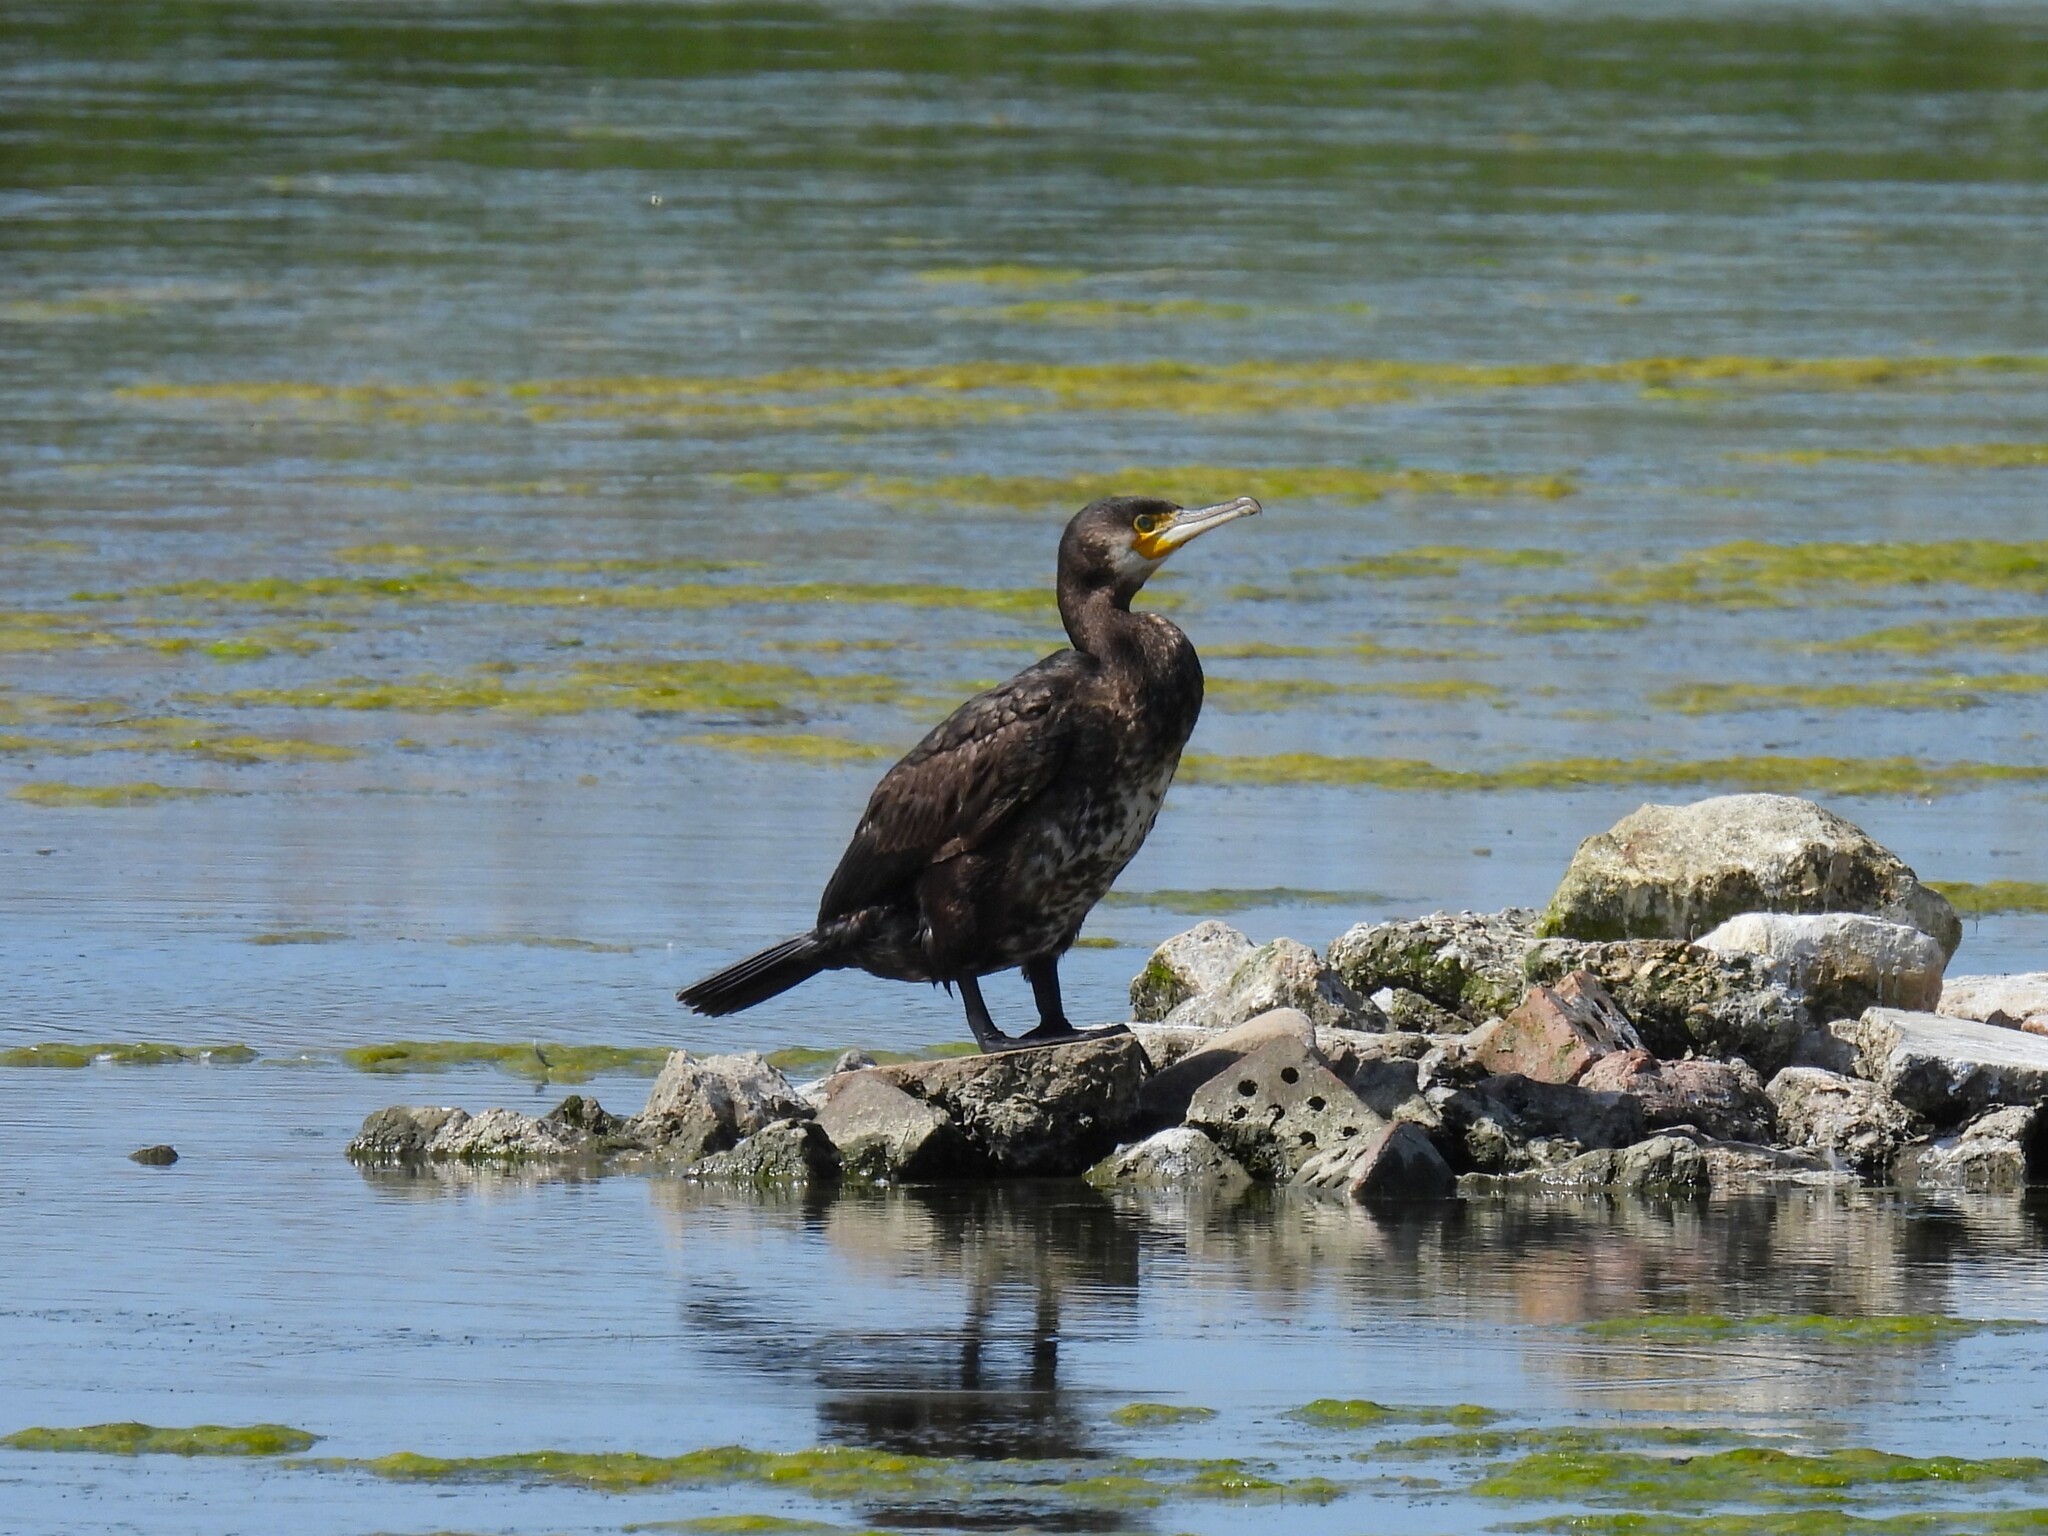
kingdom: Animalia
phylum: Chordata
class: Aves
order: Suliformes
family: Phalacrocoracidae
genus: Phalacrocorax
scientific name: Phalacrocorax carbo
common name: Great cormorant
